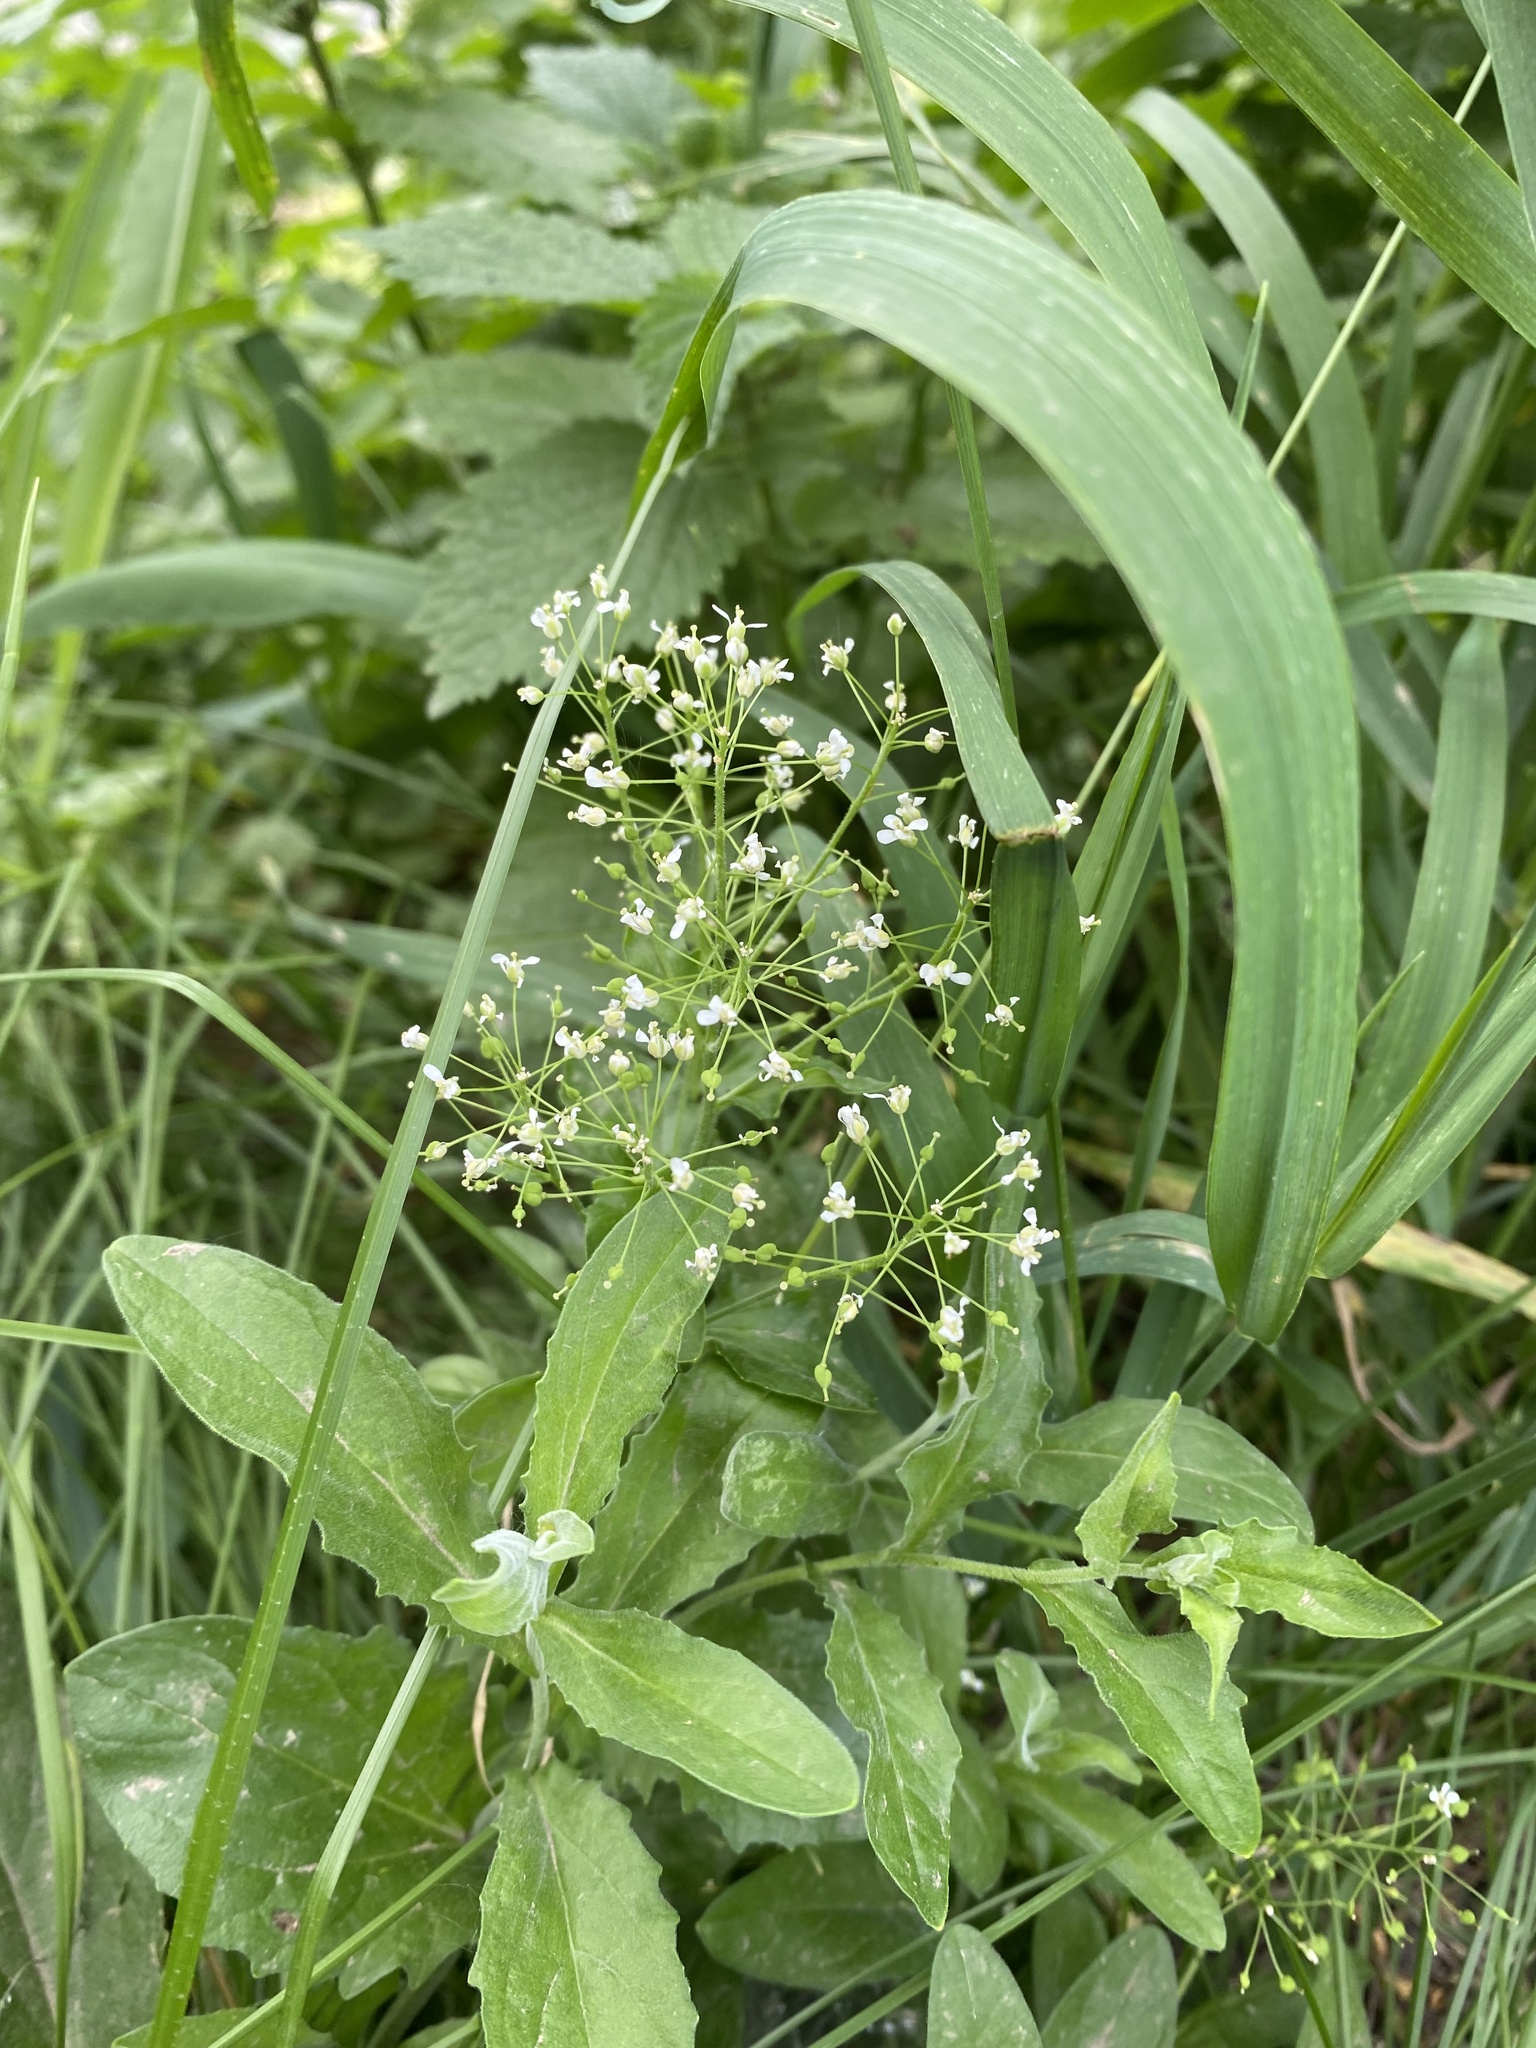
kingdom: Plantae
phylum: Tracheophyta
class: Magnoliopsida
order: Brassicales
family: Brassicaceae
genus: Lepidium
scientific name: Lepidium draba
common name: Hoary cress
